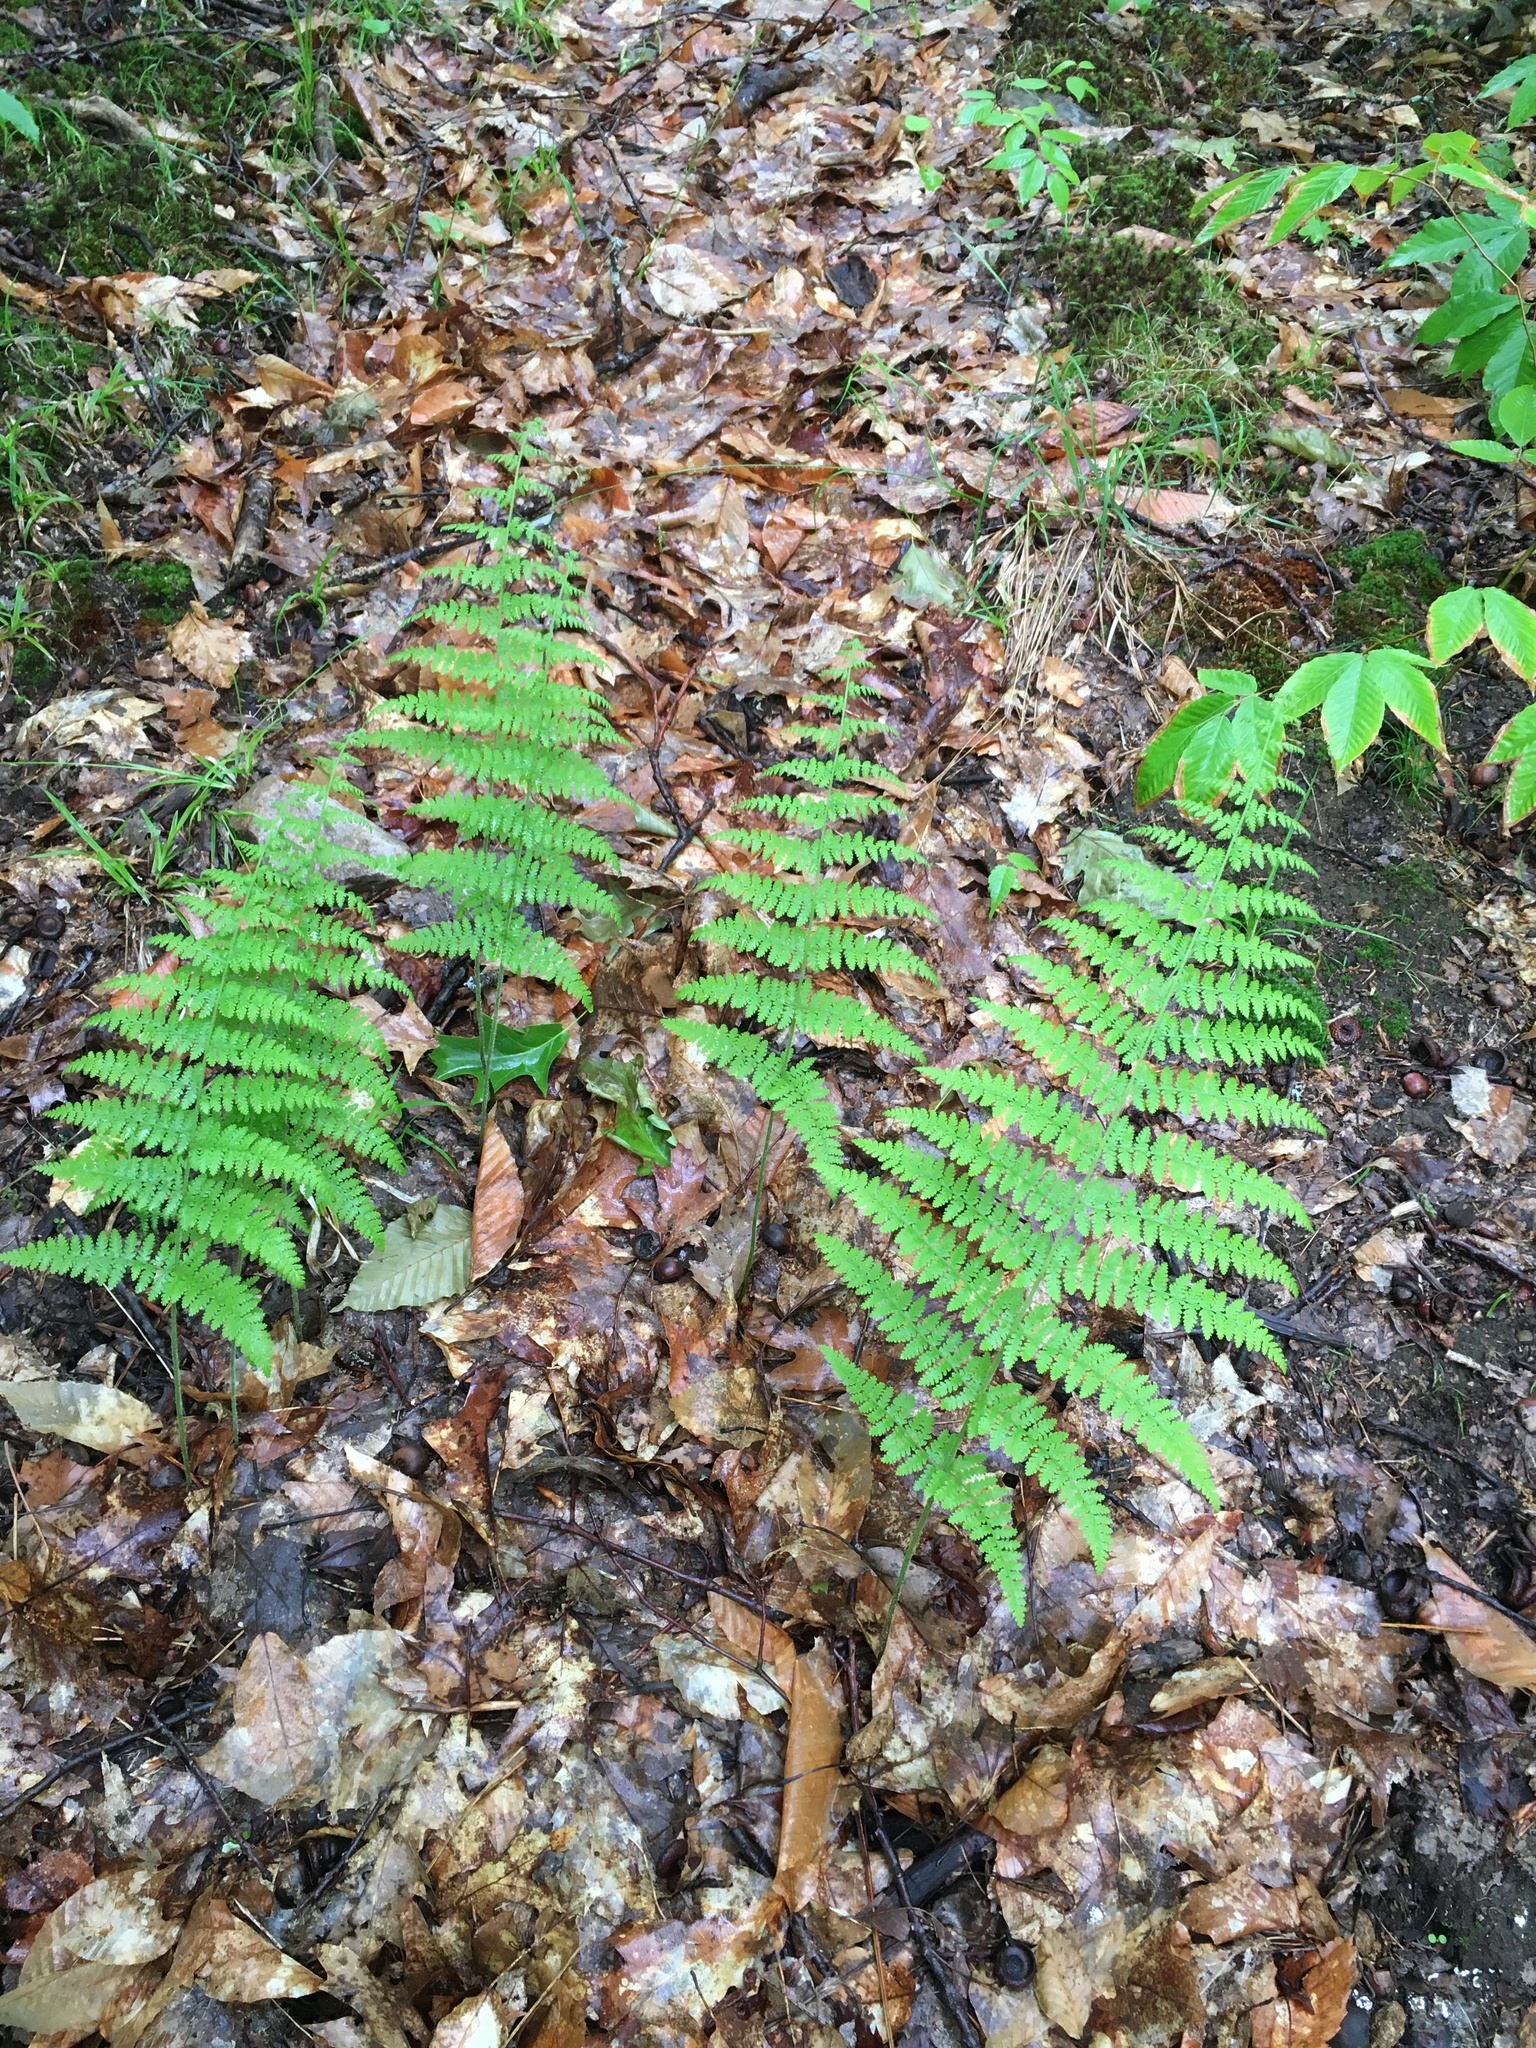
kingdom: Plantae
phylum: Tracheophyta
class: Polypodiopsida
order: Polypodiales
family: Dennstaedtiaceae
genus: Sitobolium
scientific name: Sitobolium punctilobum
